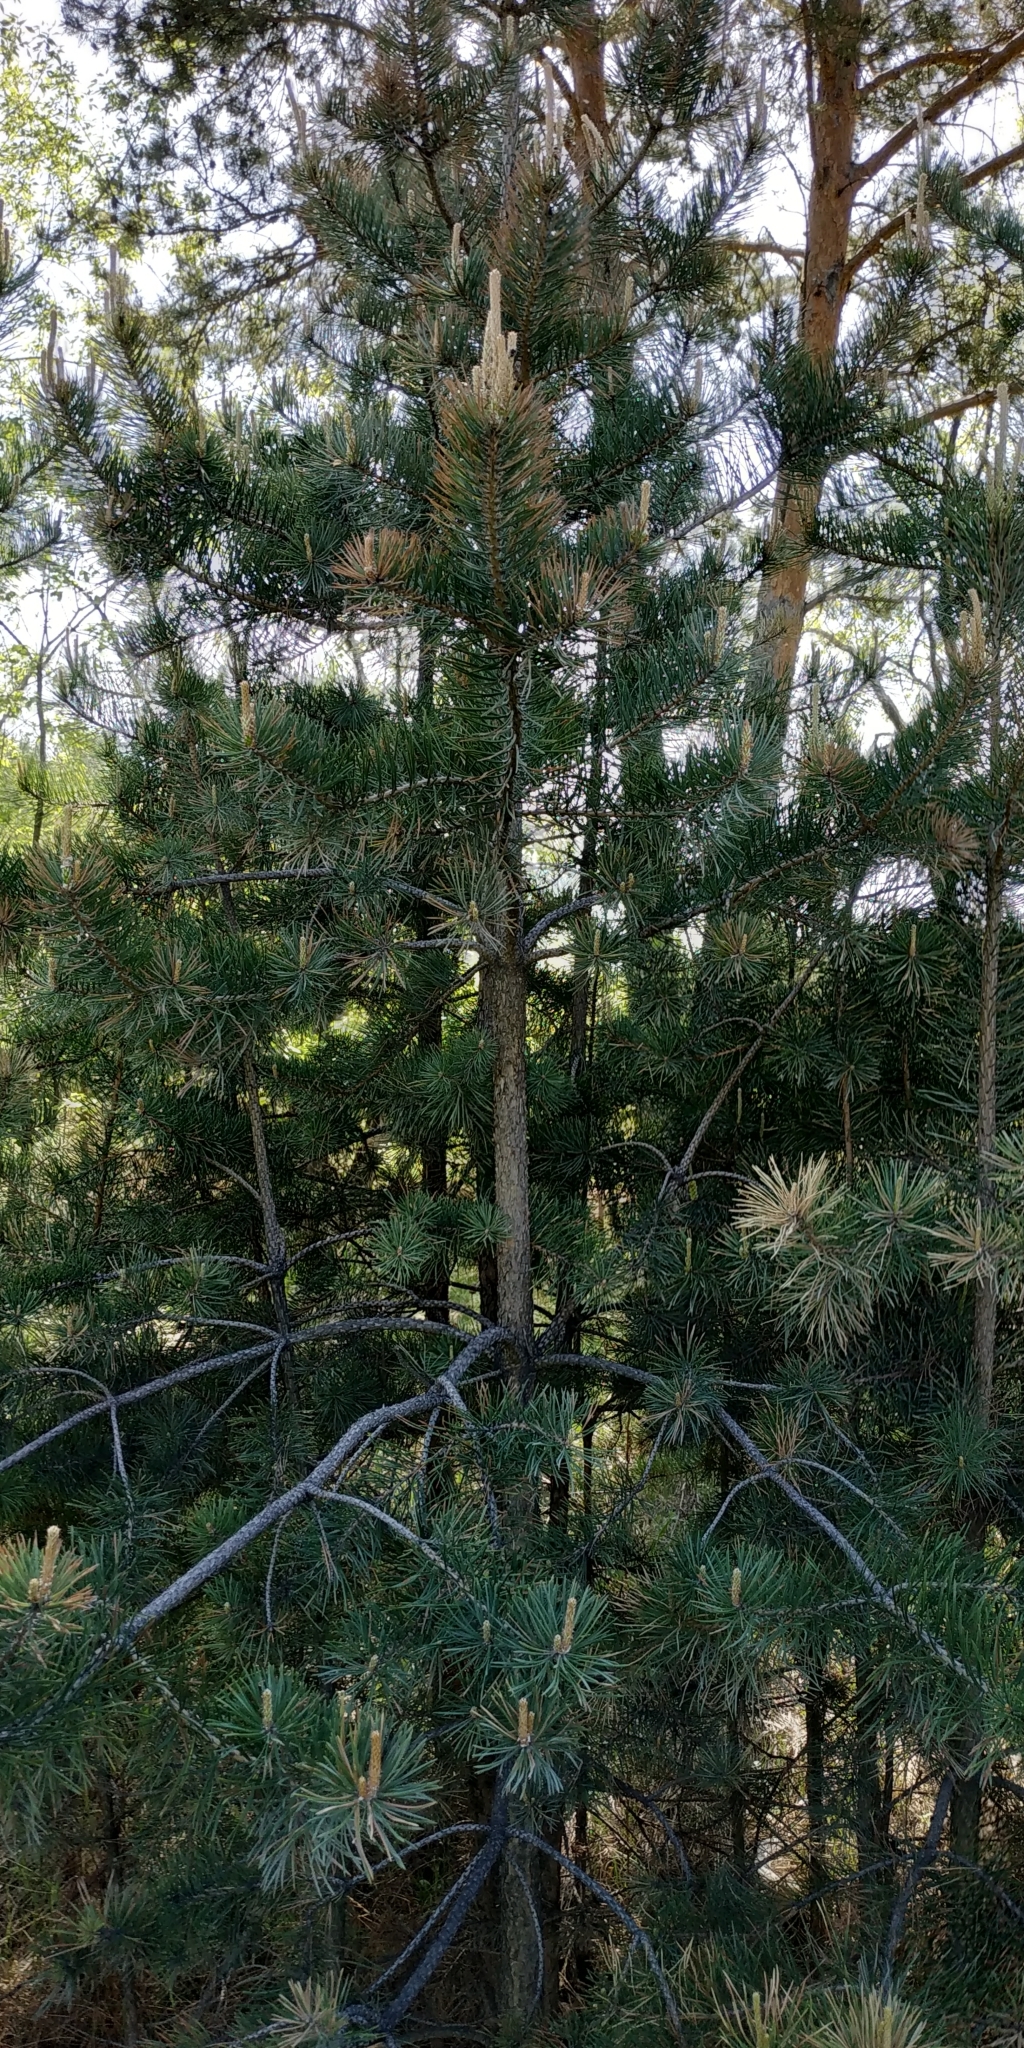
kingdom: Plantae
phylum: Tracheophyta
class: Pinopsida
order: Pinales
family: Pinaceae
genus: Pinus
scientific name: Pinus sylvestris
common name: Scots pine
